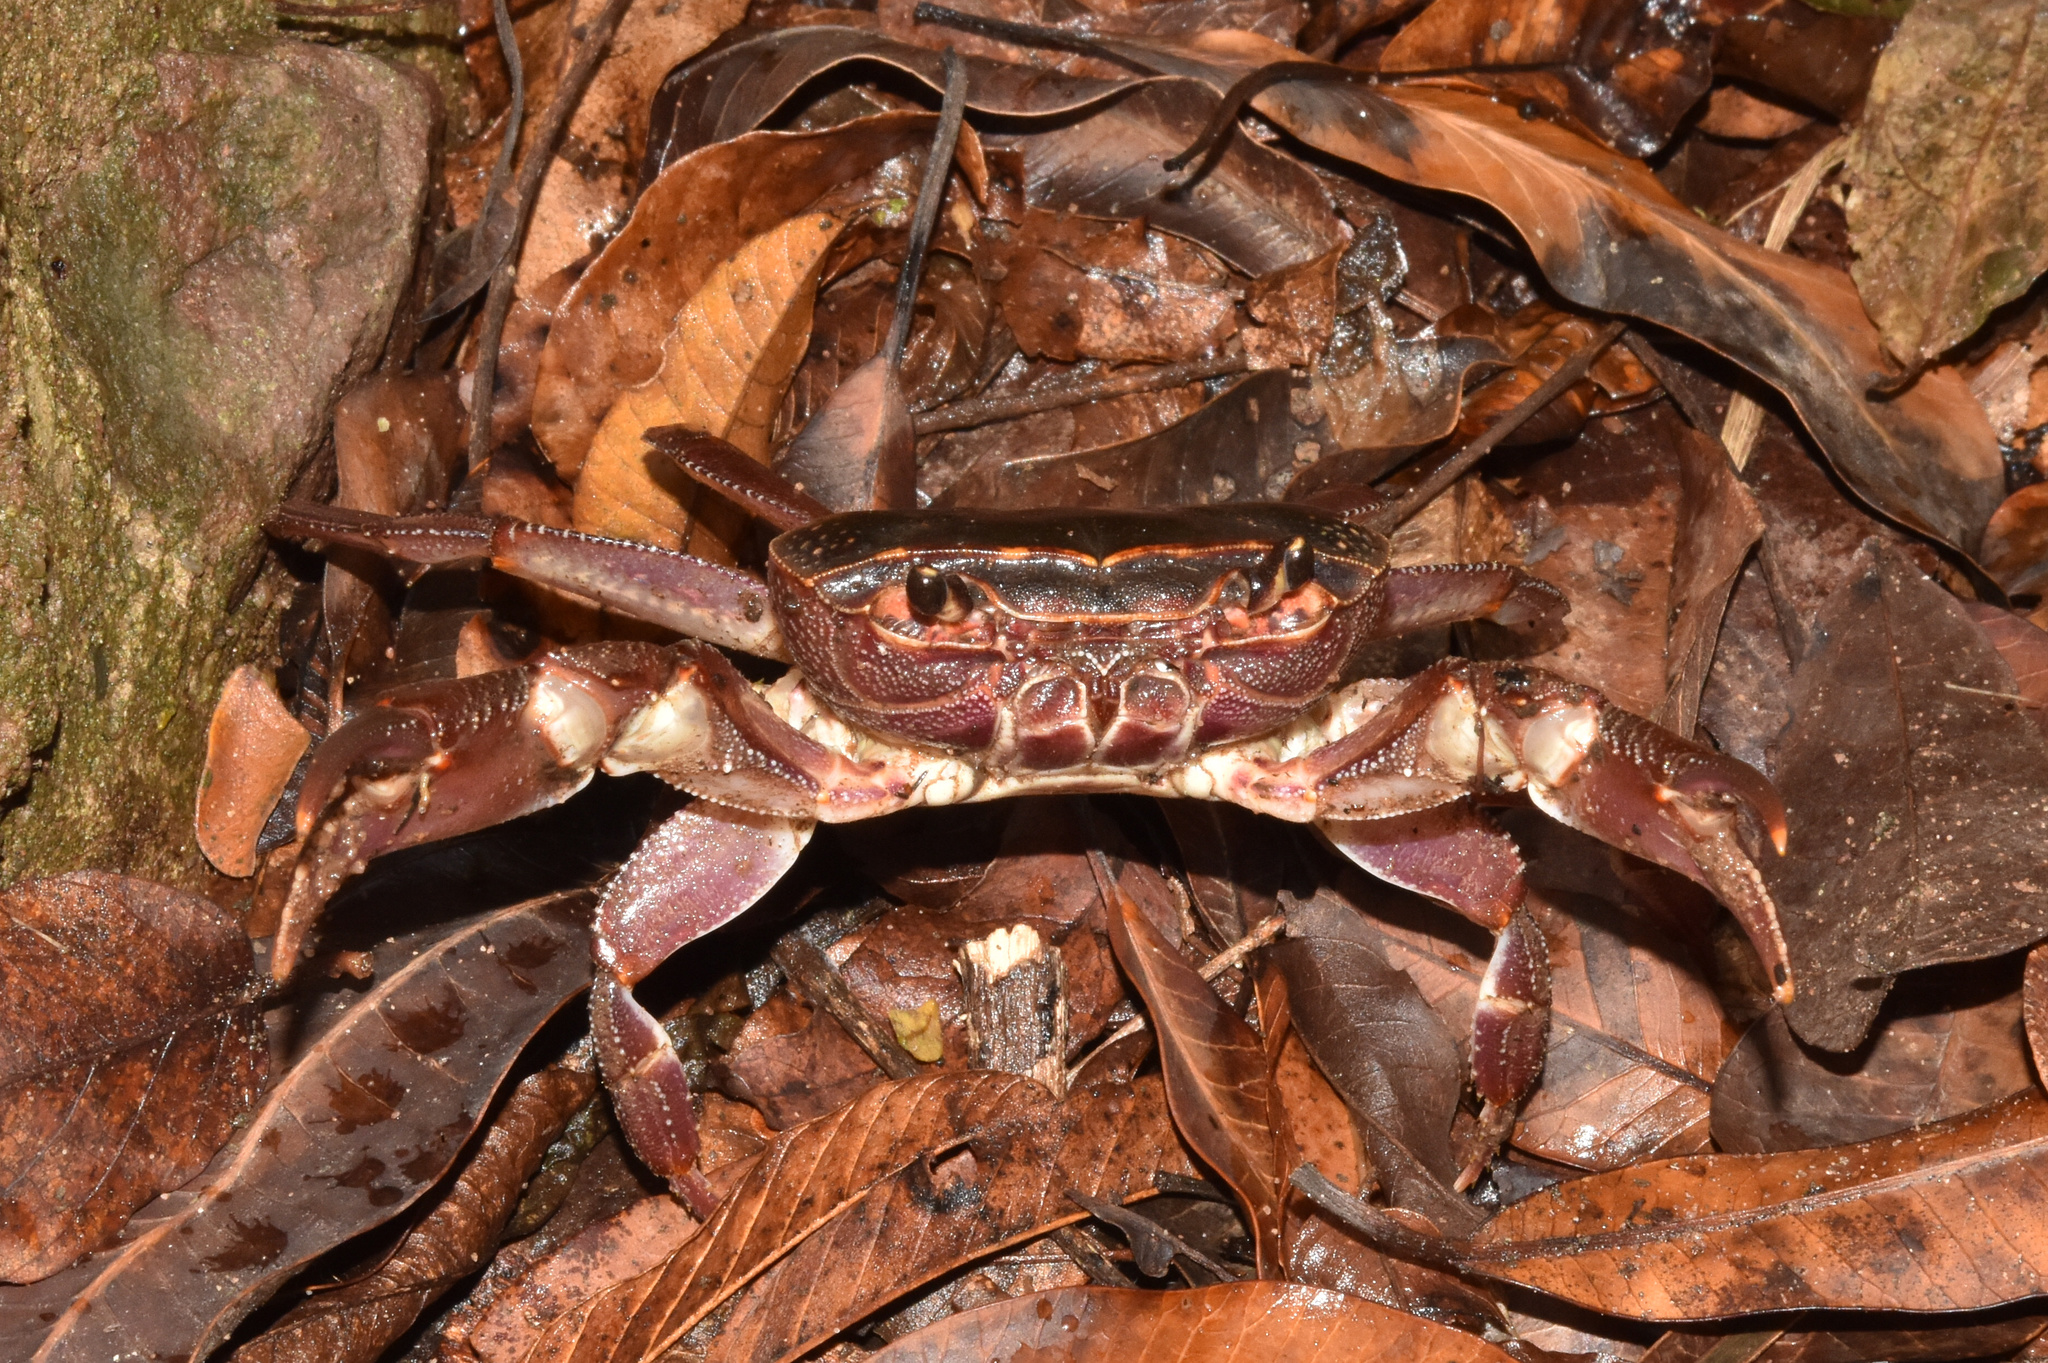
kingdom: Animalia
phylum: Arthropoda
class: Malacostraca
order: Decapoda
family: Potamonautidae
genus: Potamonautes
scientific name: Potamonautes sidneyi
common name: Natal river crab
